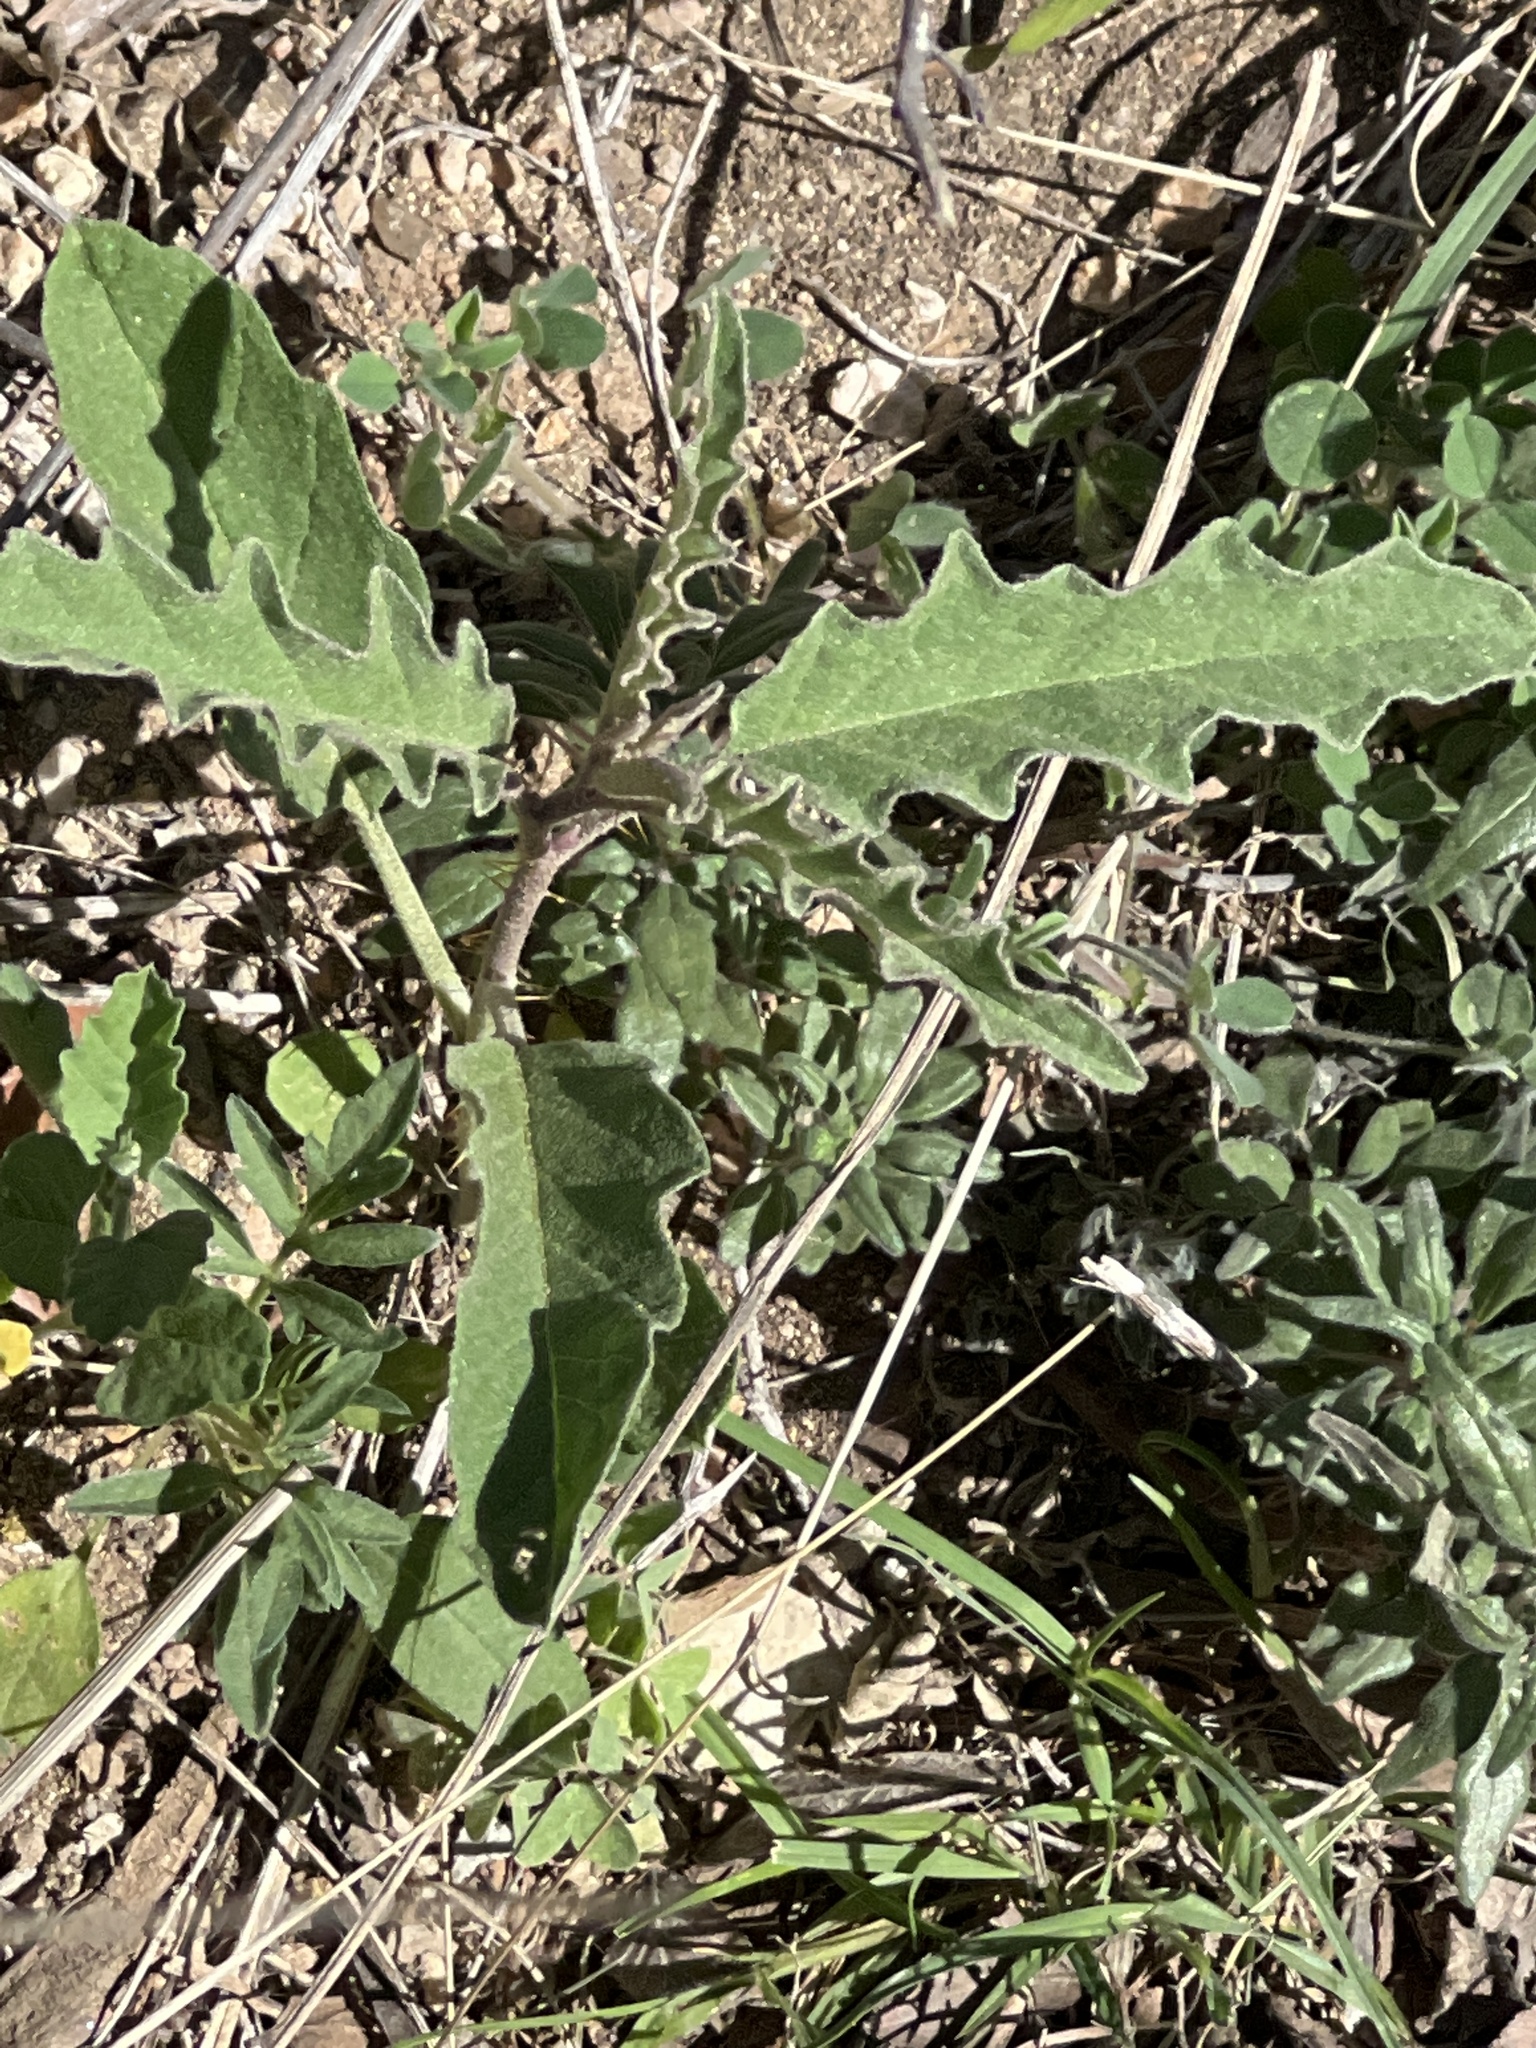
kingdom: Plantae
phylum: Tracheophyta
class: Magnoliopsida
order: Solanales
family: Solanaceae
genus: Solanum
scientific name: Solanum elaeagnifolium
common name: Silverleaf nightshade
